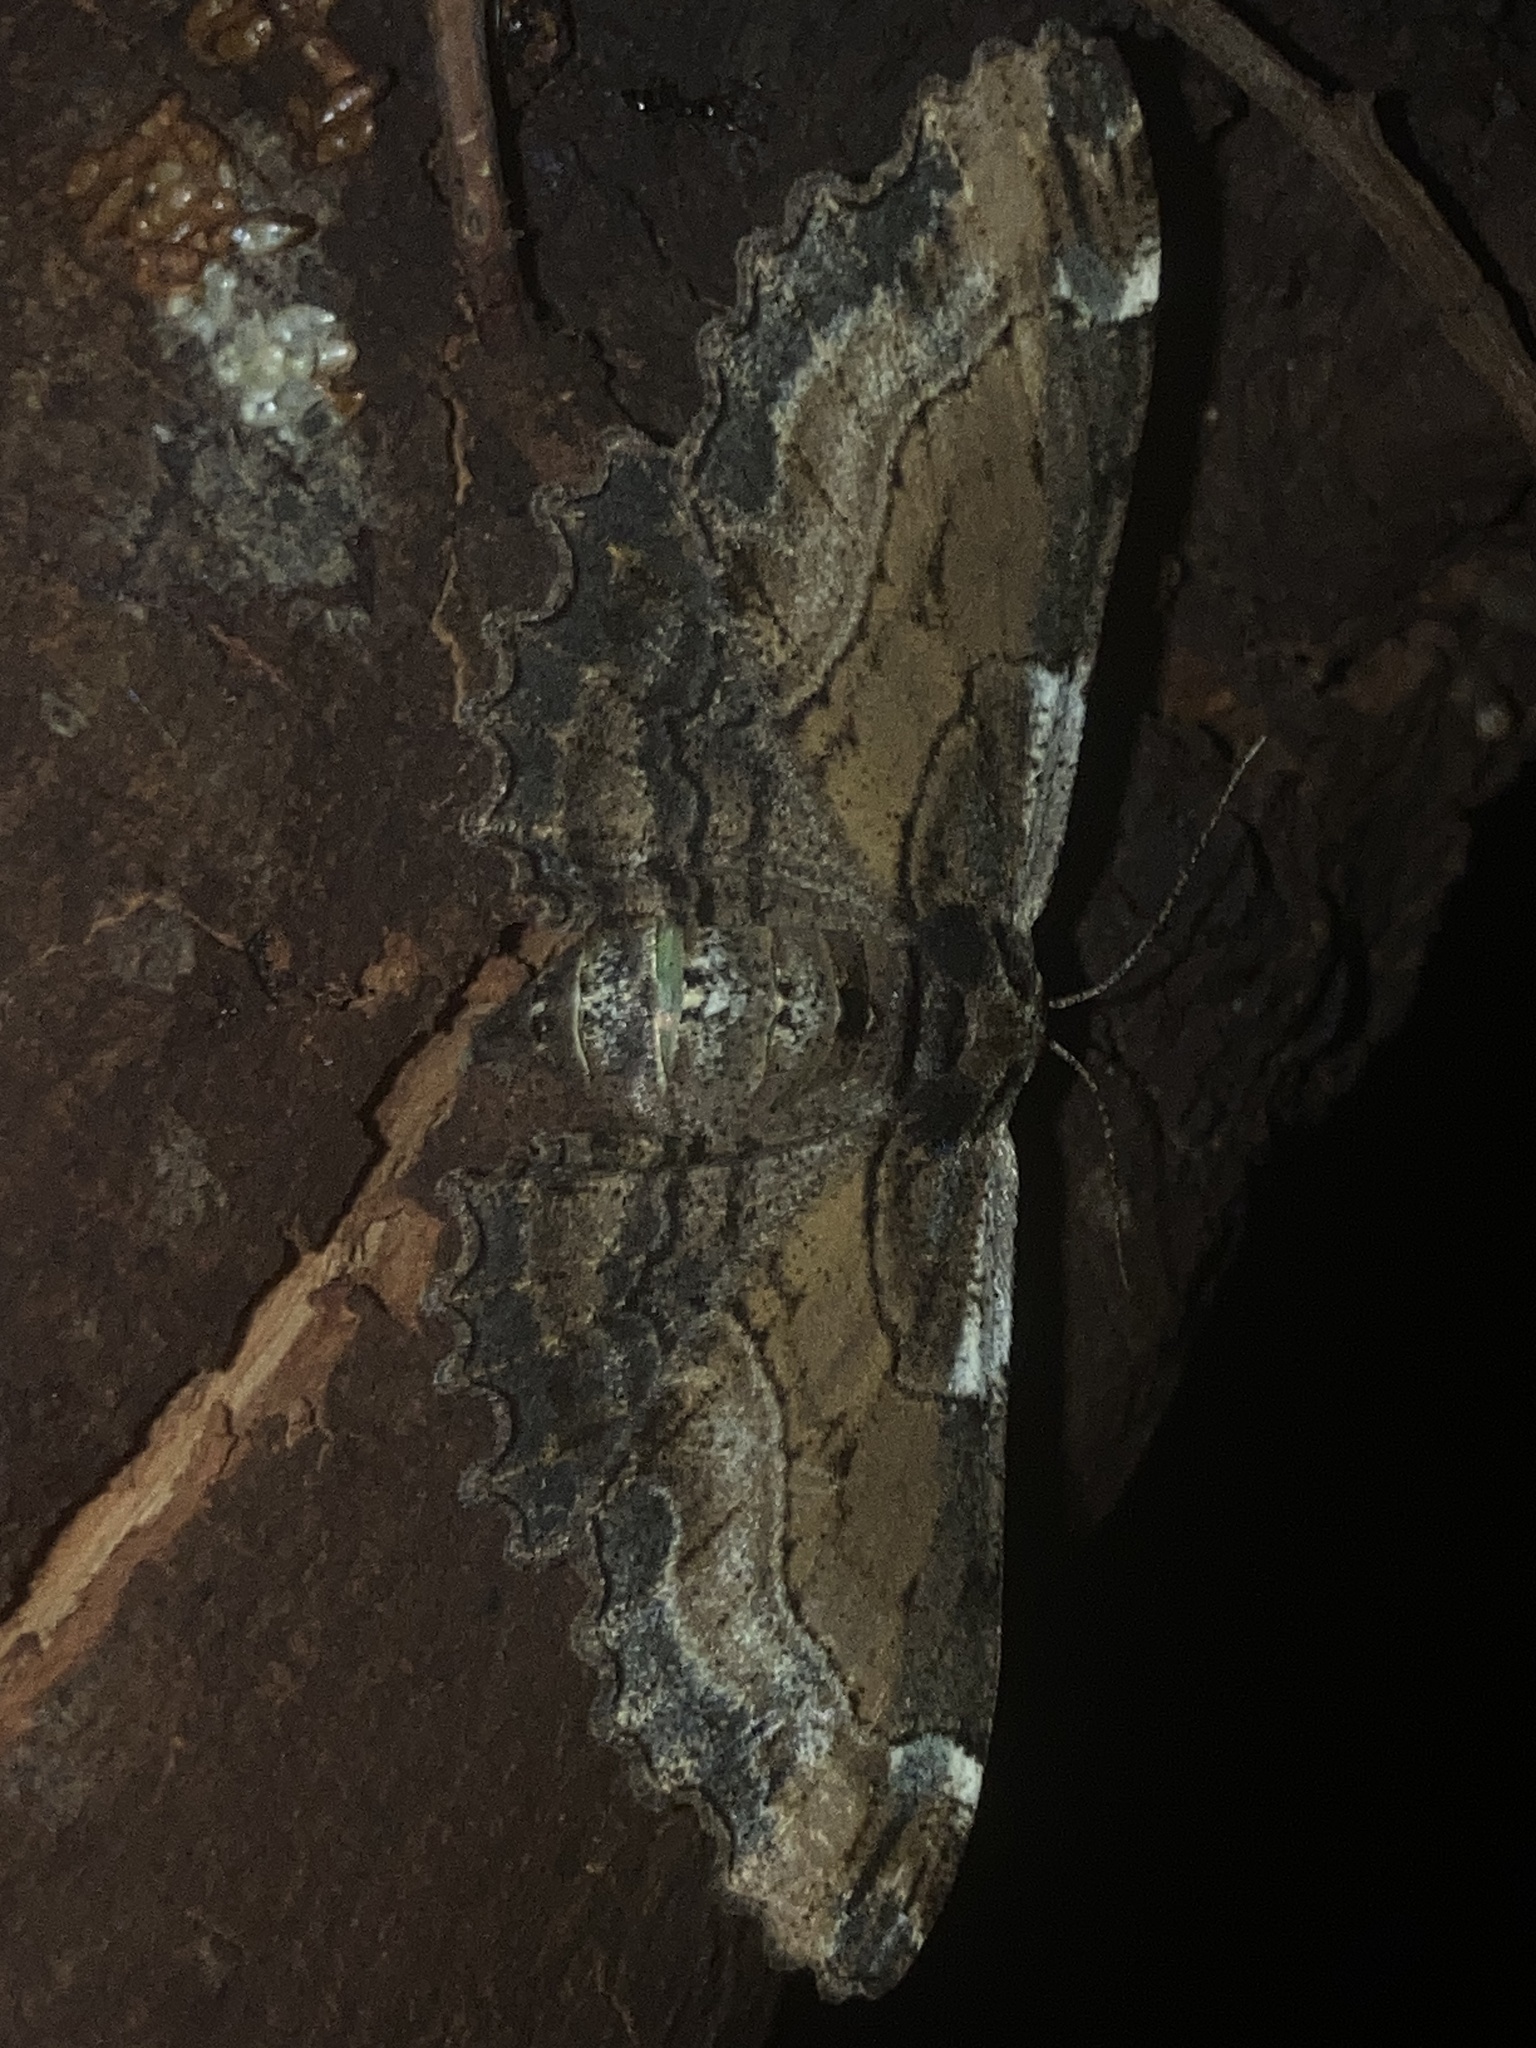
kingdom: Animalia
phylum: Arthropoda
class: Insecta
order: Lepidoptera
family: Geometridae
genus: Pholodes
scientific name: Pholodes sinistraria
